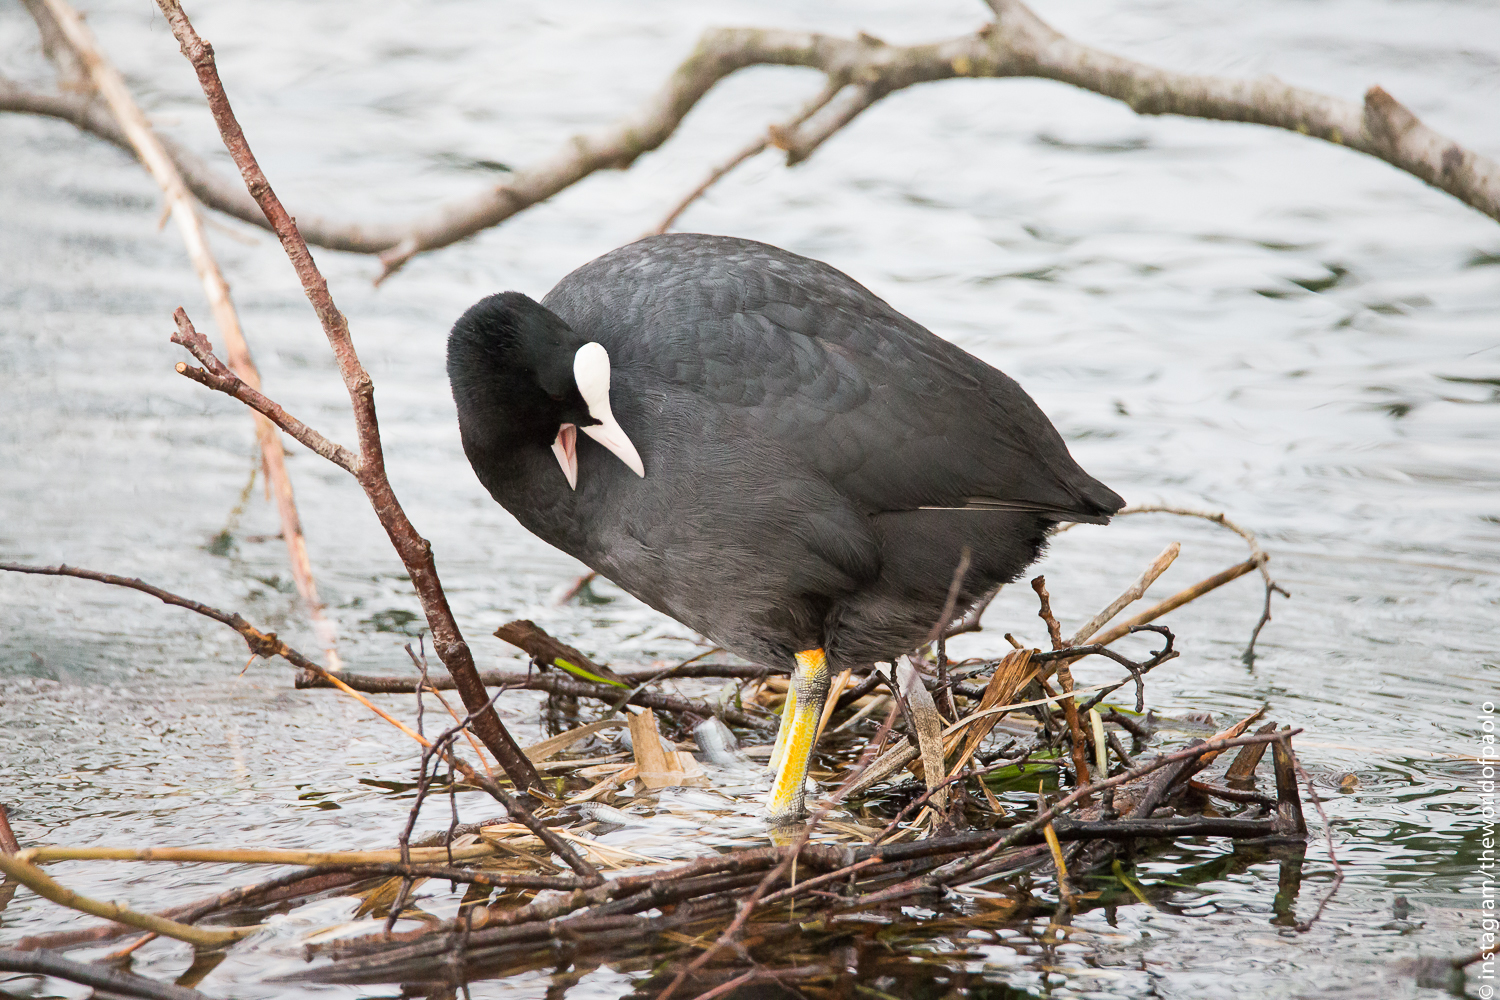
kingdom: Animalia
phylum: Chordata
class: Aves
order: Gruiformes
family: Rallidae
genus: Fulica
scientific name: Fulica atra
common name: Eurasian coot
